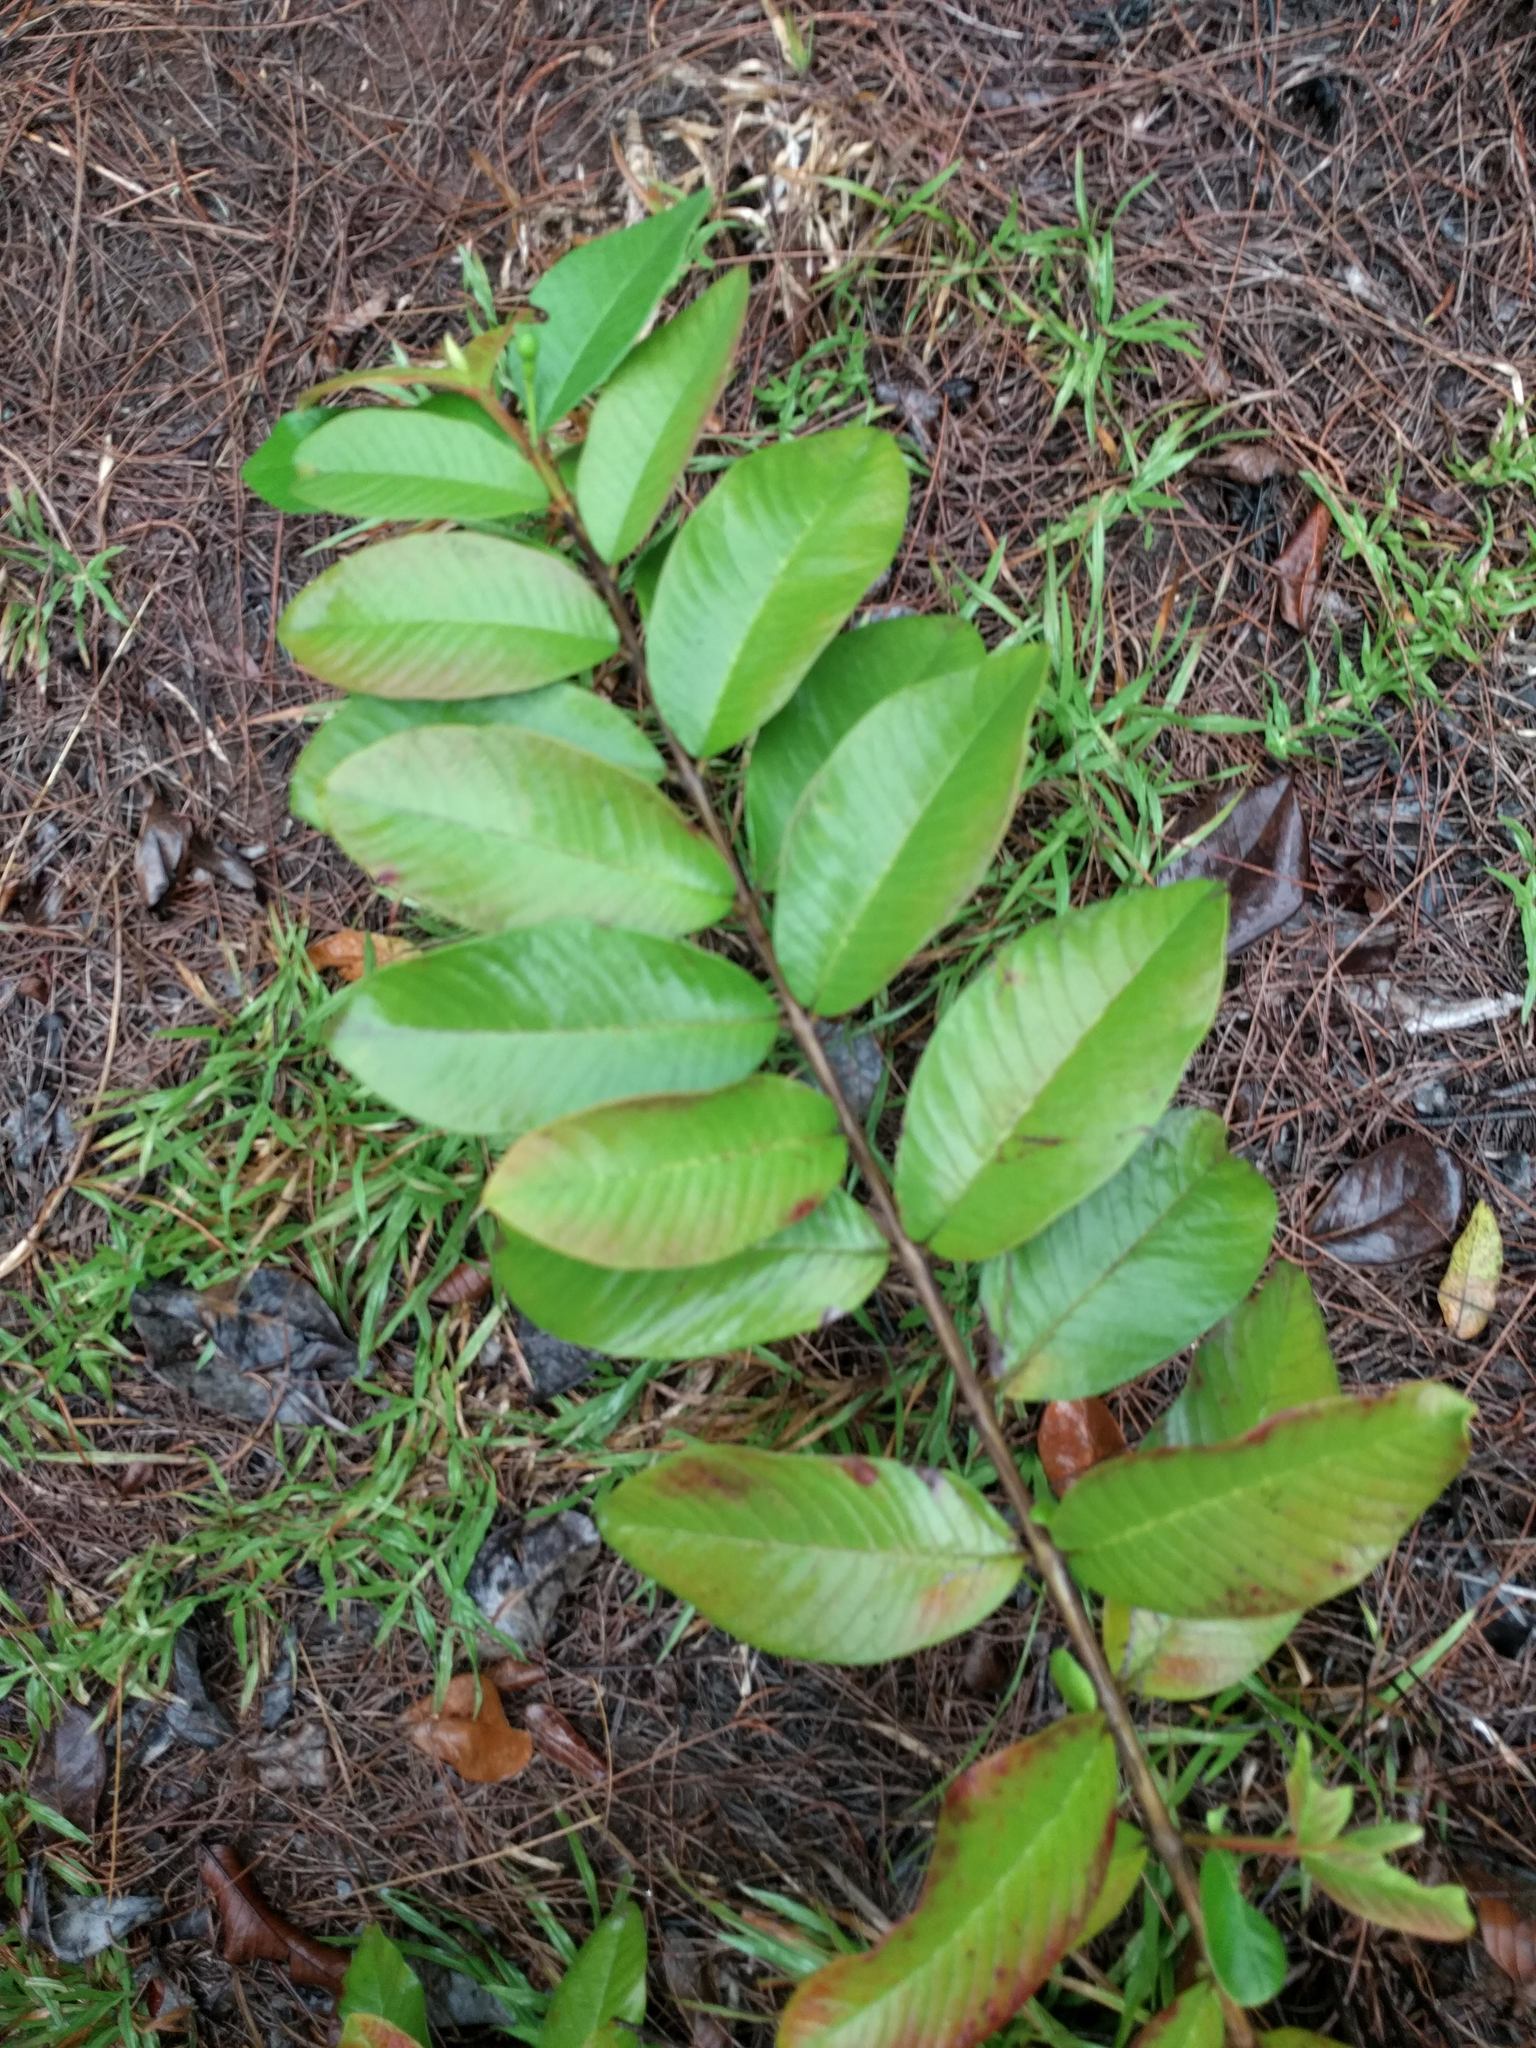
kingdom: Plantae
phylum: Tracheophyta
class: Magnoliopsida
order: Myrtales
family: Myrtaceae
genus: Psidium
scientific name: Psidium guajava
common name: Guava
